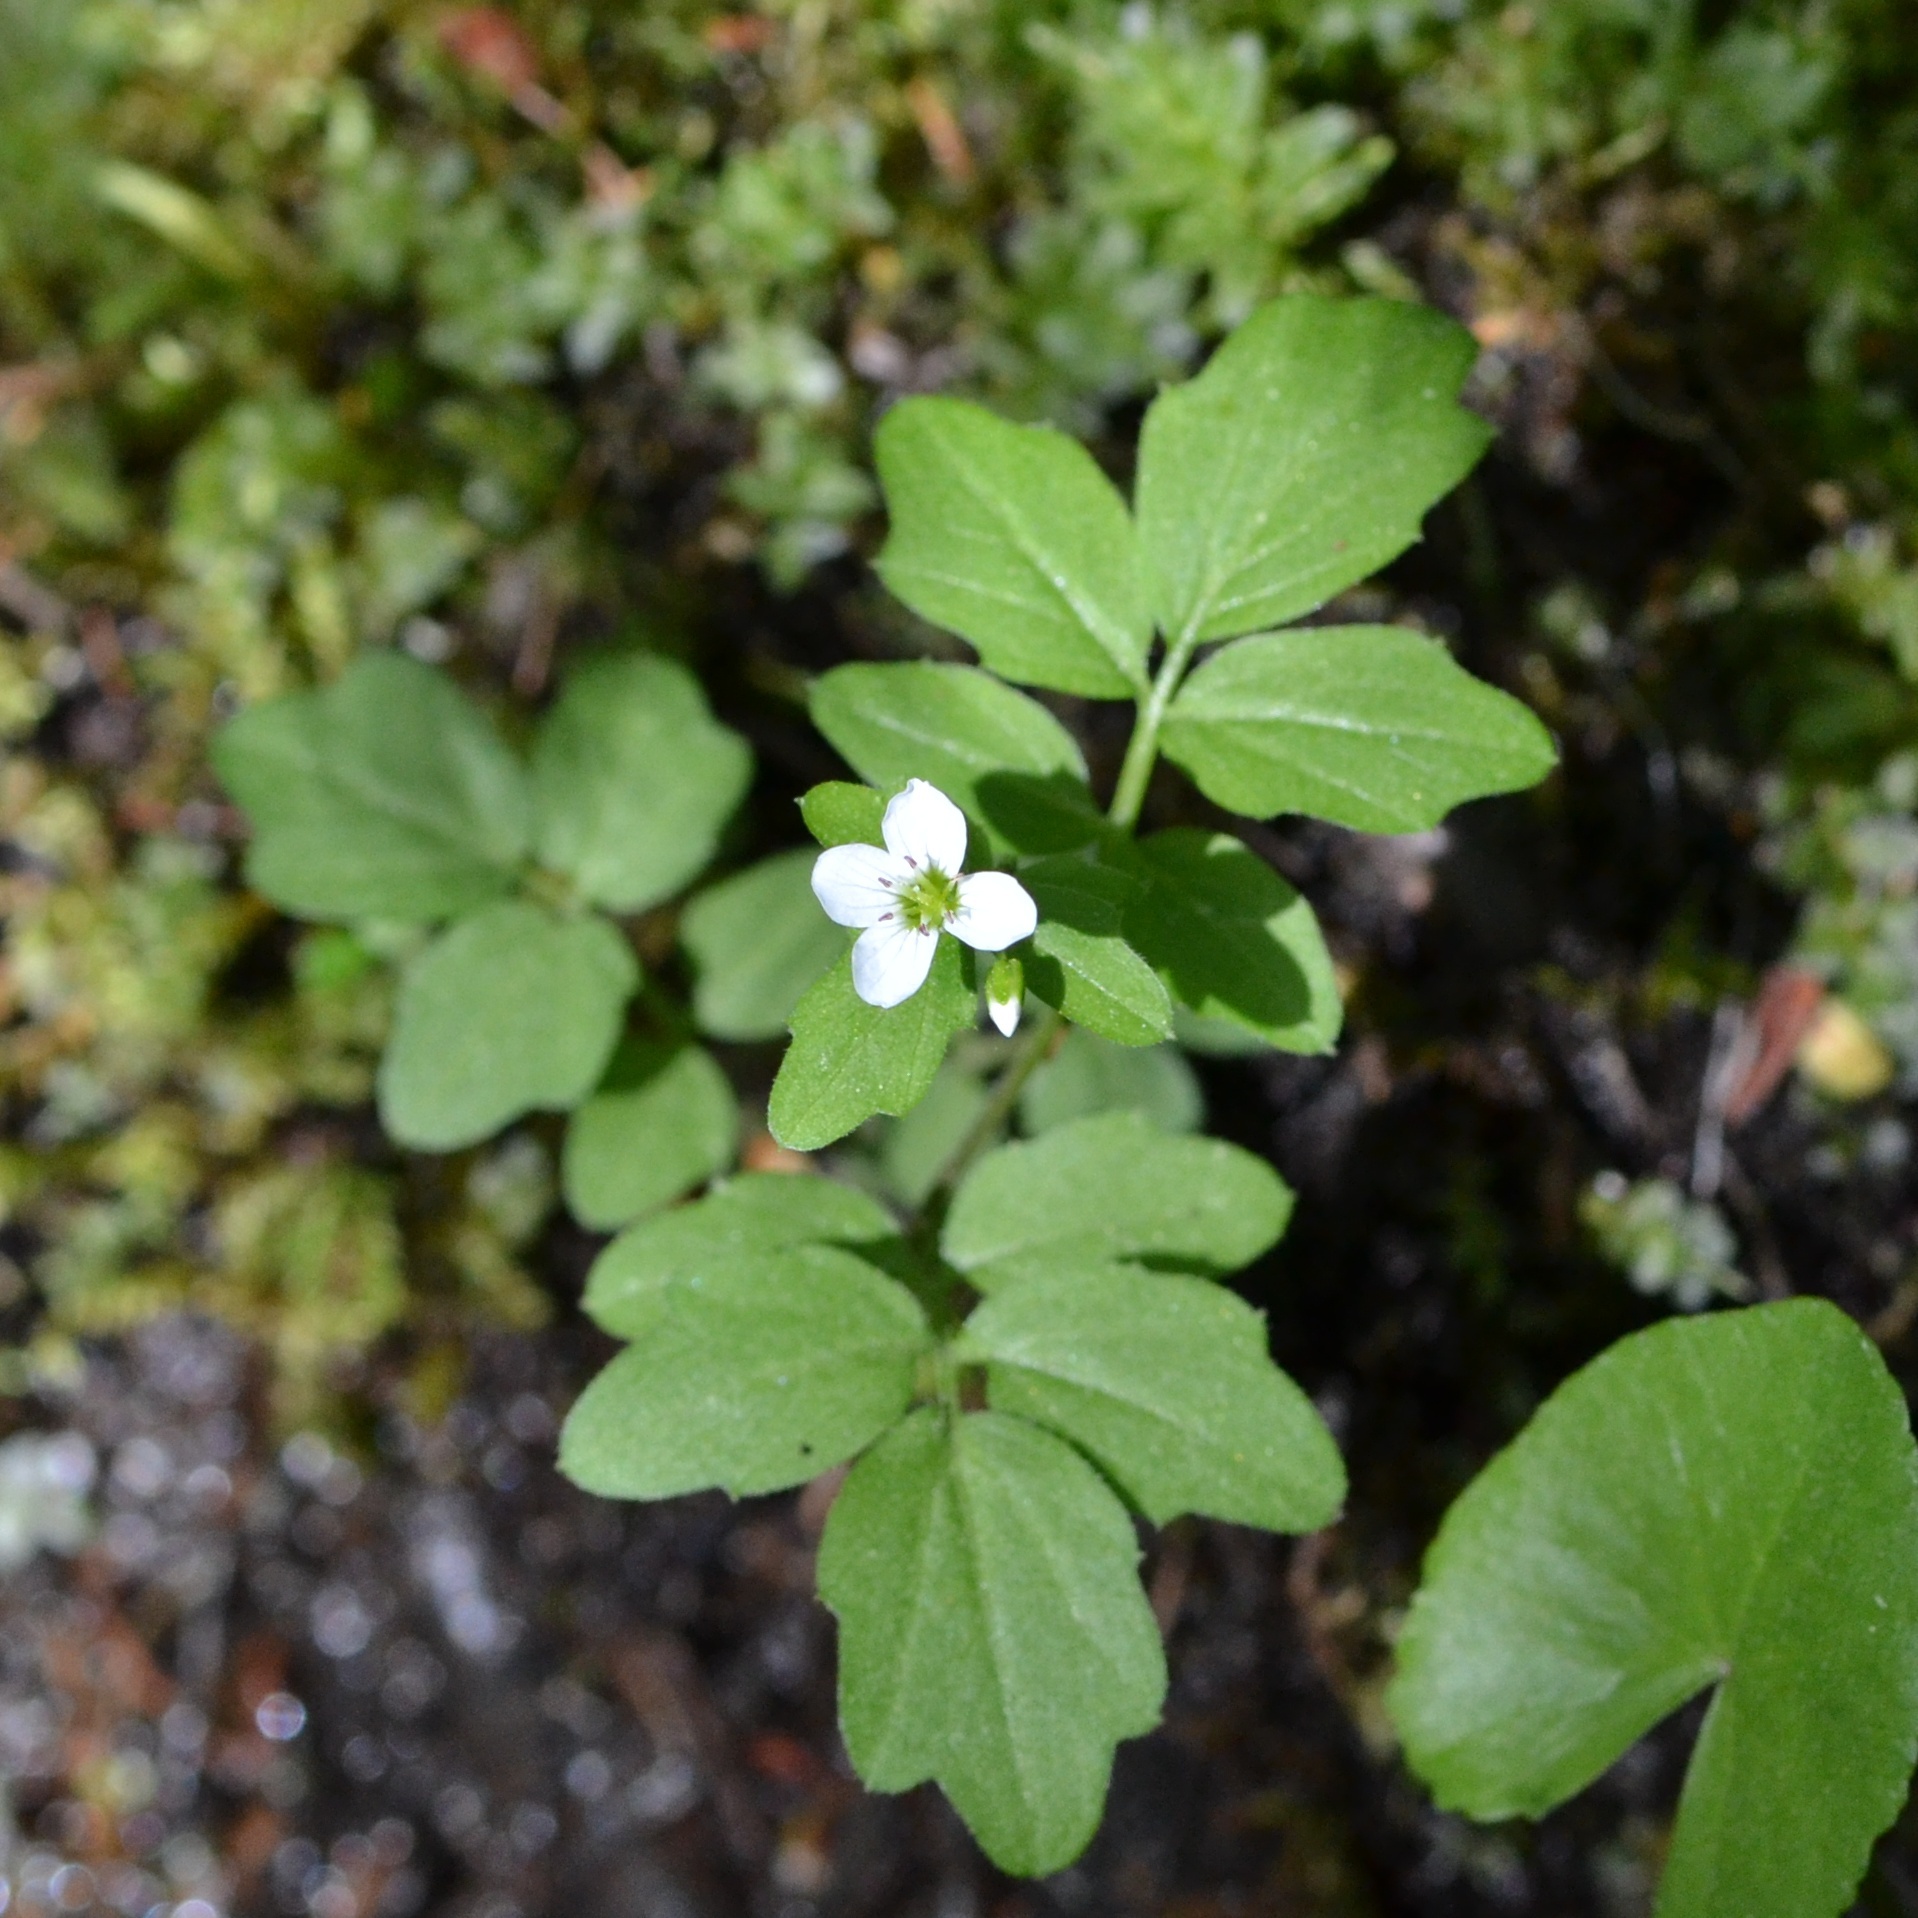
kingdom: Plantae
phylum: Tracheophyta
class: Magnoliopsida
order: Brassicales
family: Brassicaceae
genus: Cardamine
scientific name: Cardamine amara
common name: Large bitter-cress
